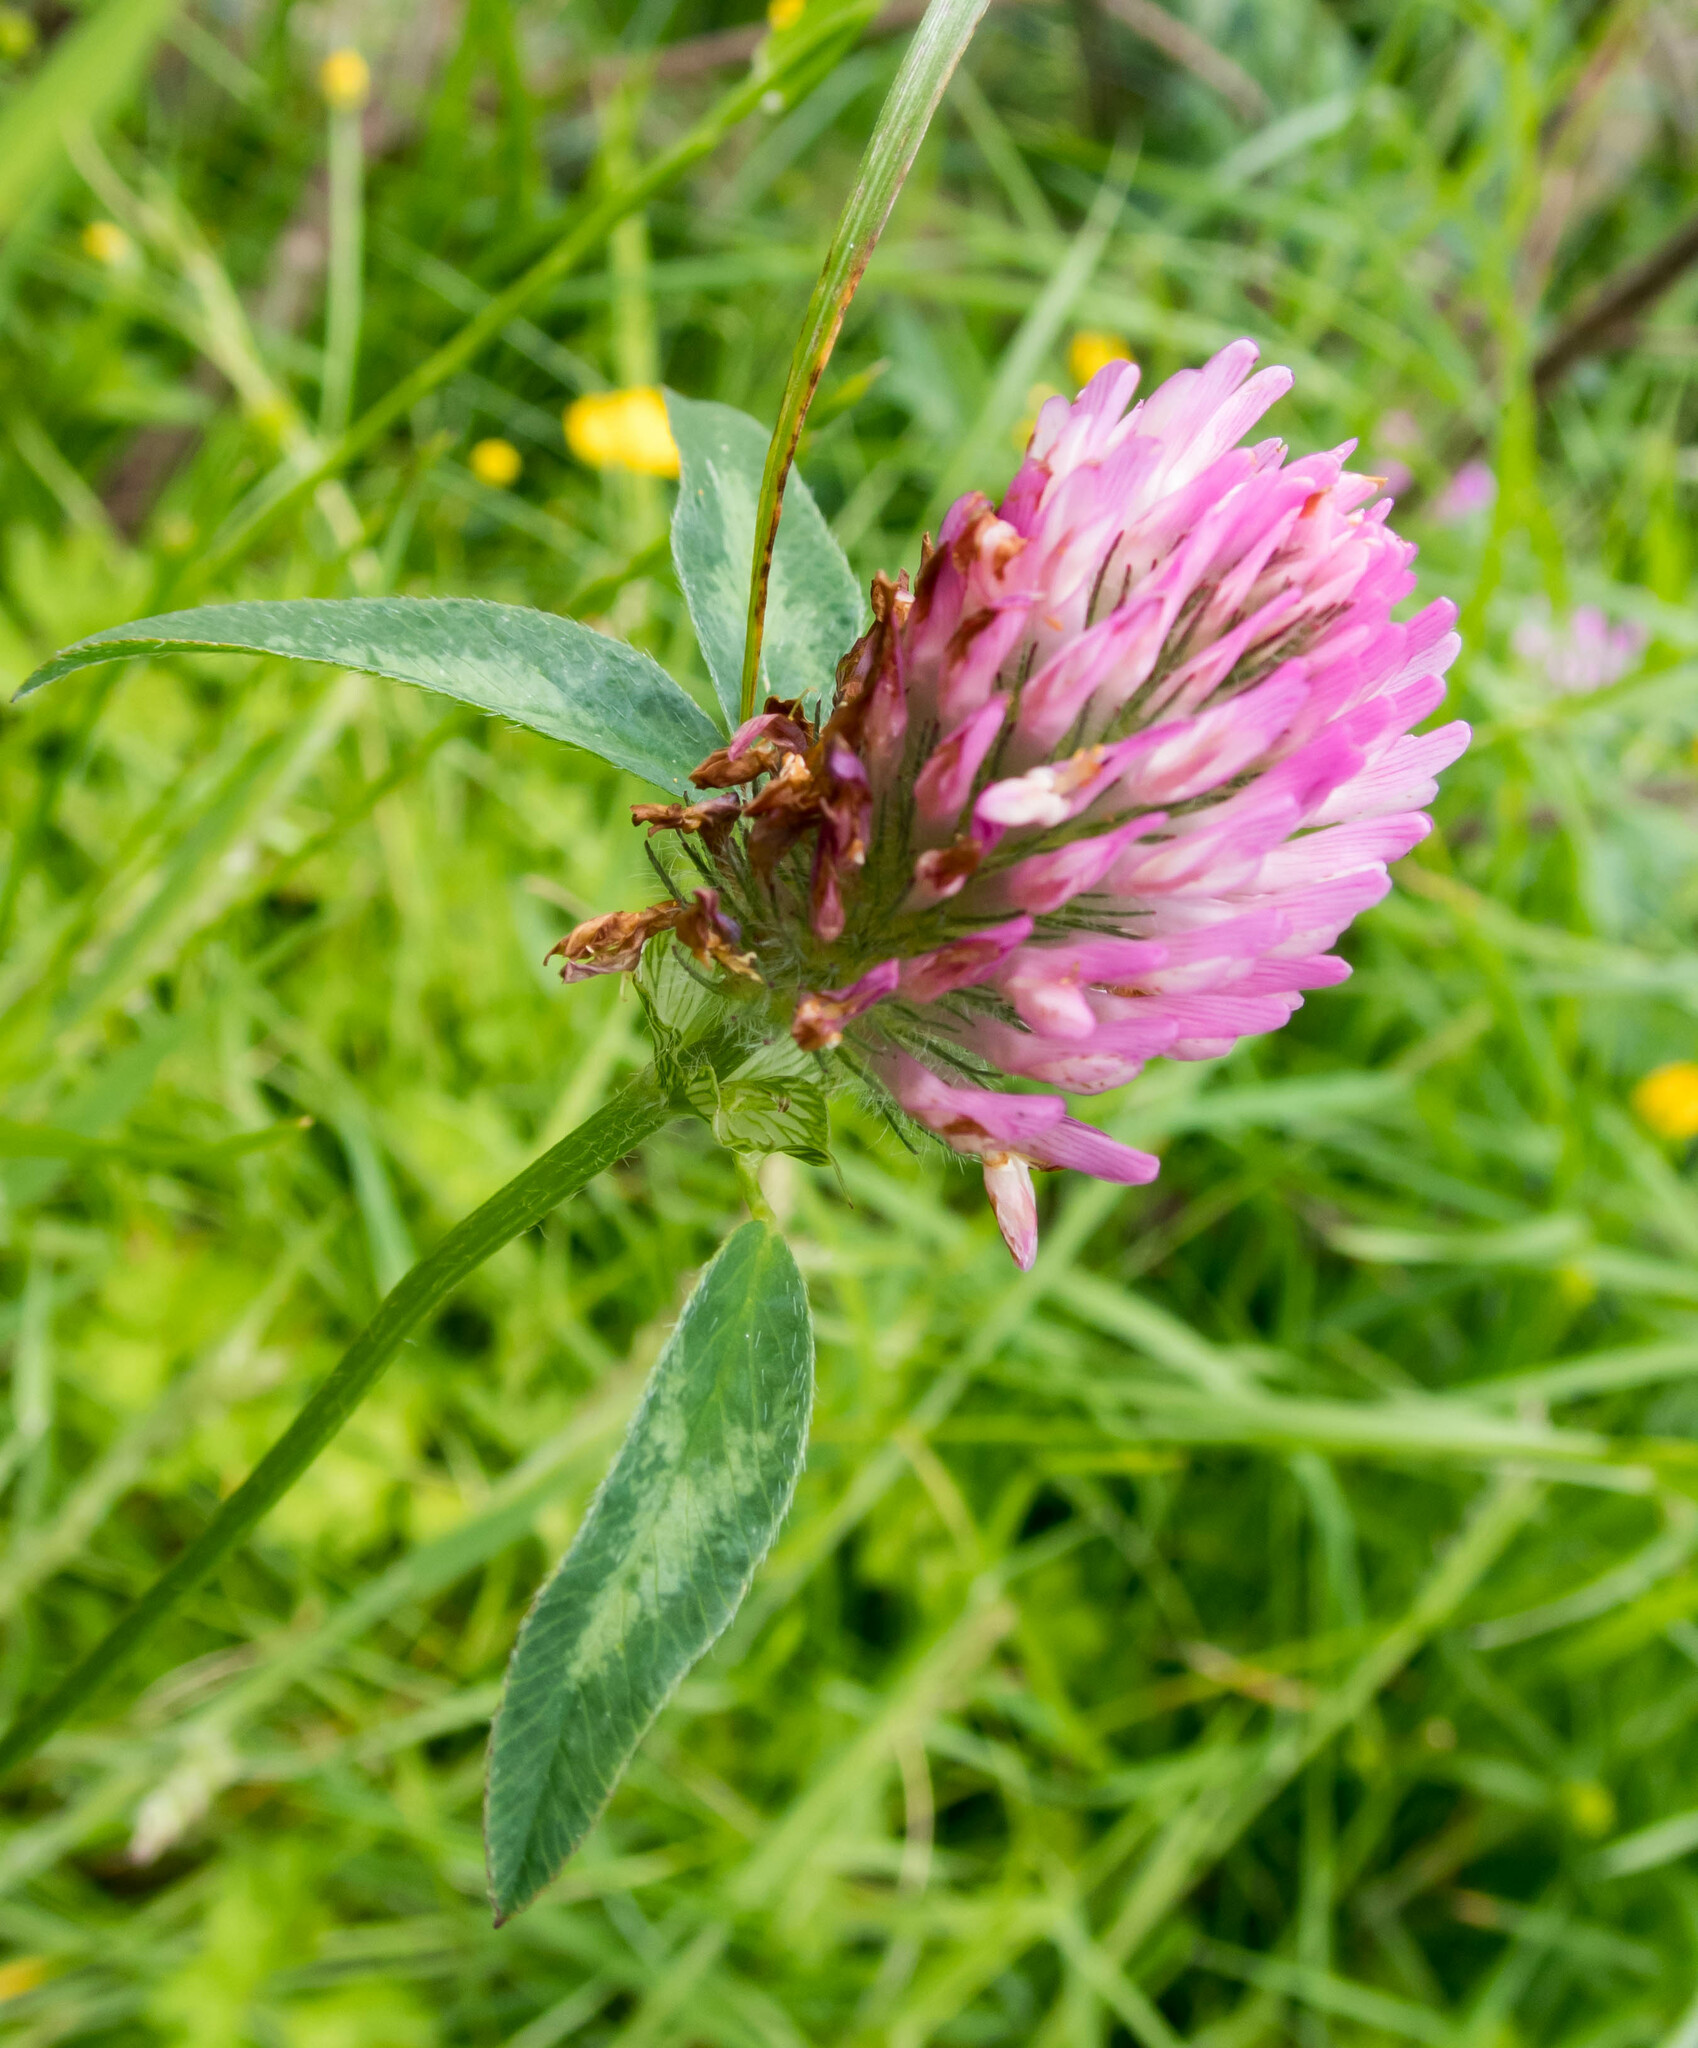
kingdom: Plantae
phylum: Tracheophyta
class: Magnoliopsida
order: Fabales
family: Fabaceae
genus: Trifolium
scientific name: Trifolium pratense
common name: Red clover
